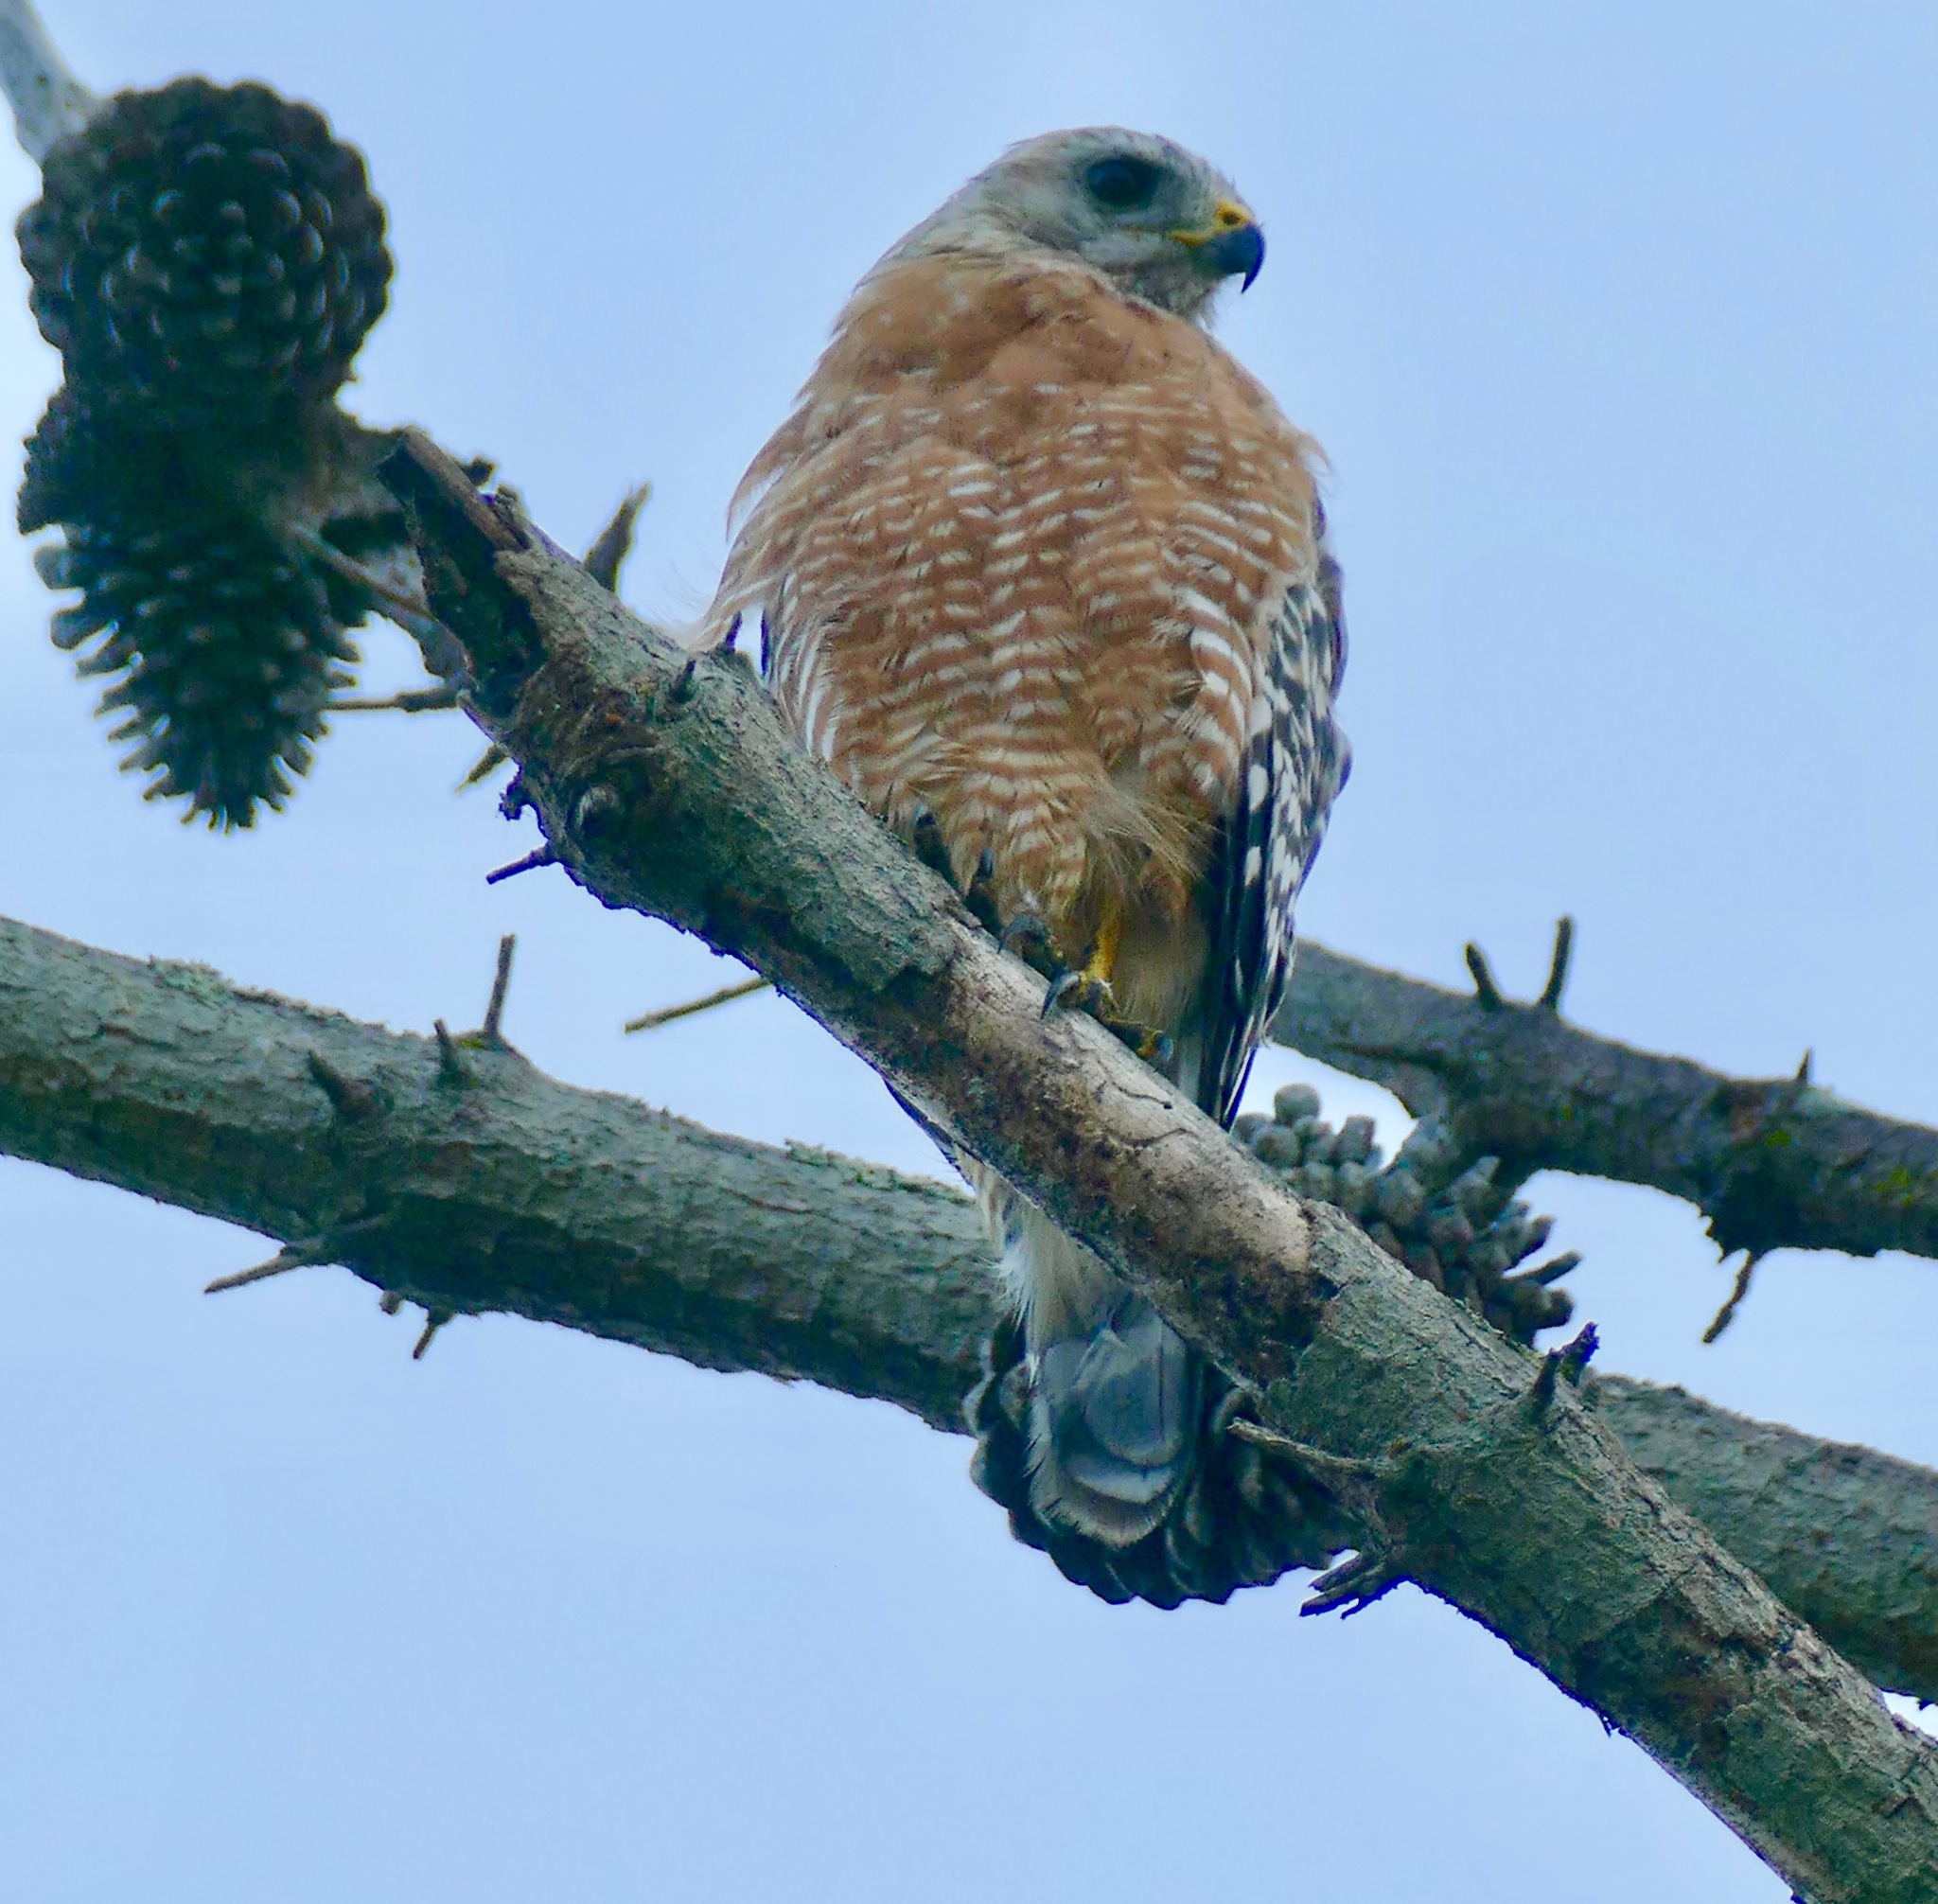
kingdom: Animalia
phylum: Chordata
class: Aves
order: Accipitriformes
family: Accipitridae
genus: Buteo
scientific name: Buteo lineatus
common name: Red-shouldered hawk
